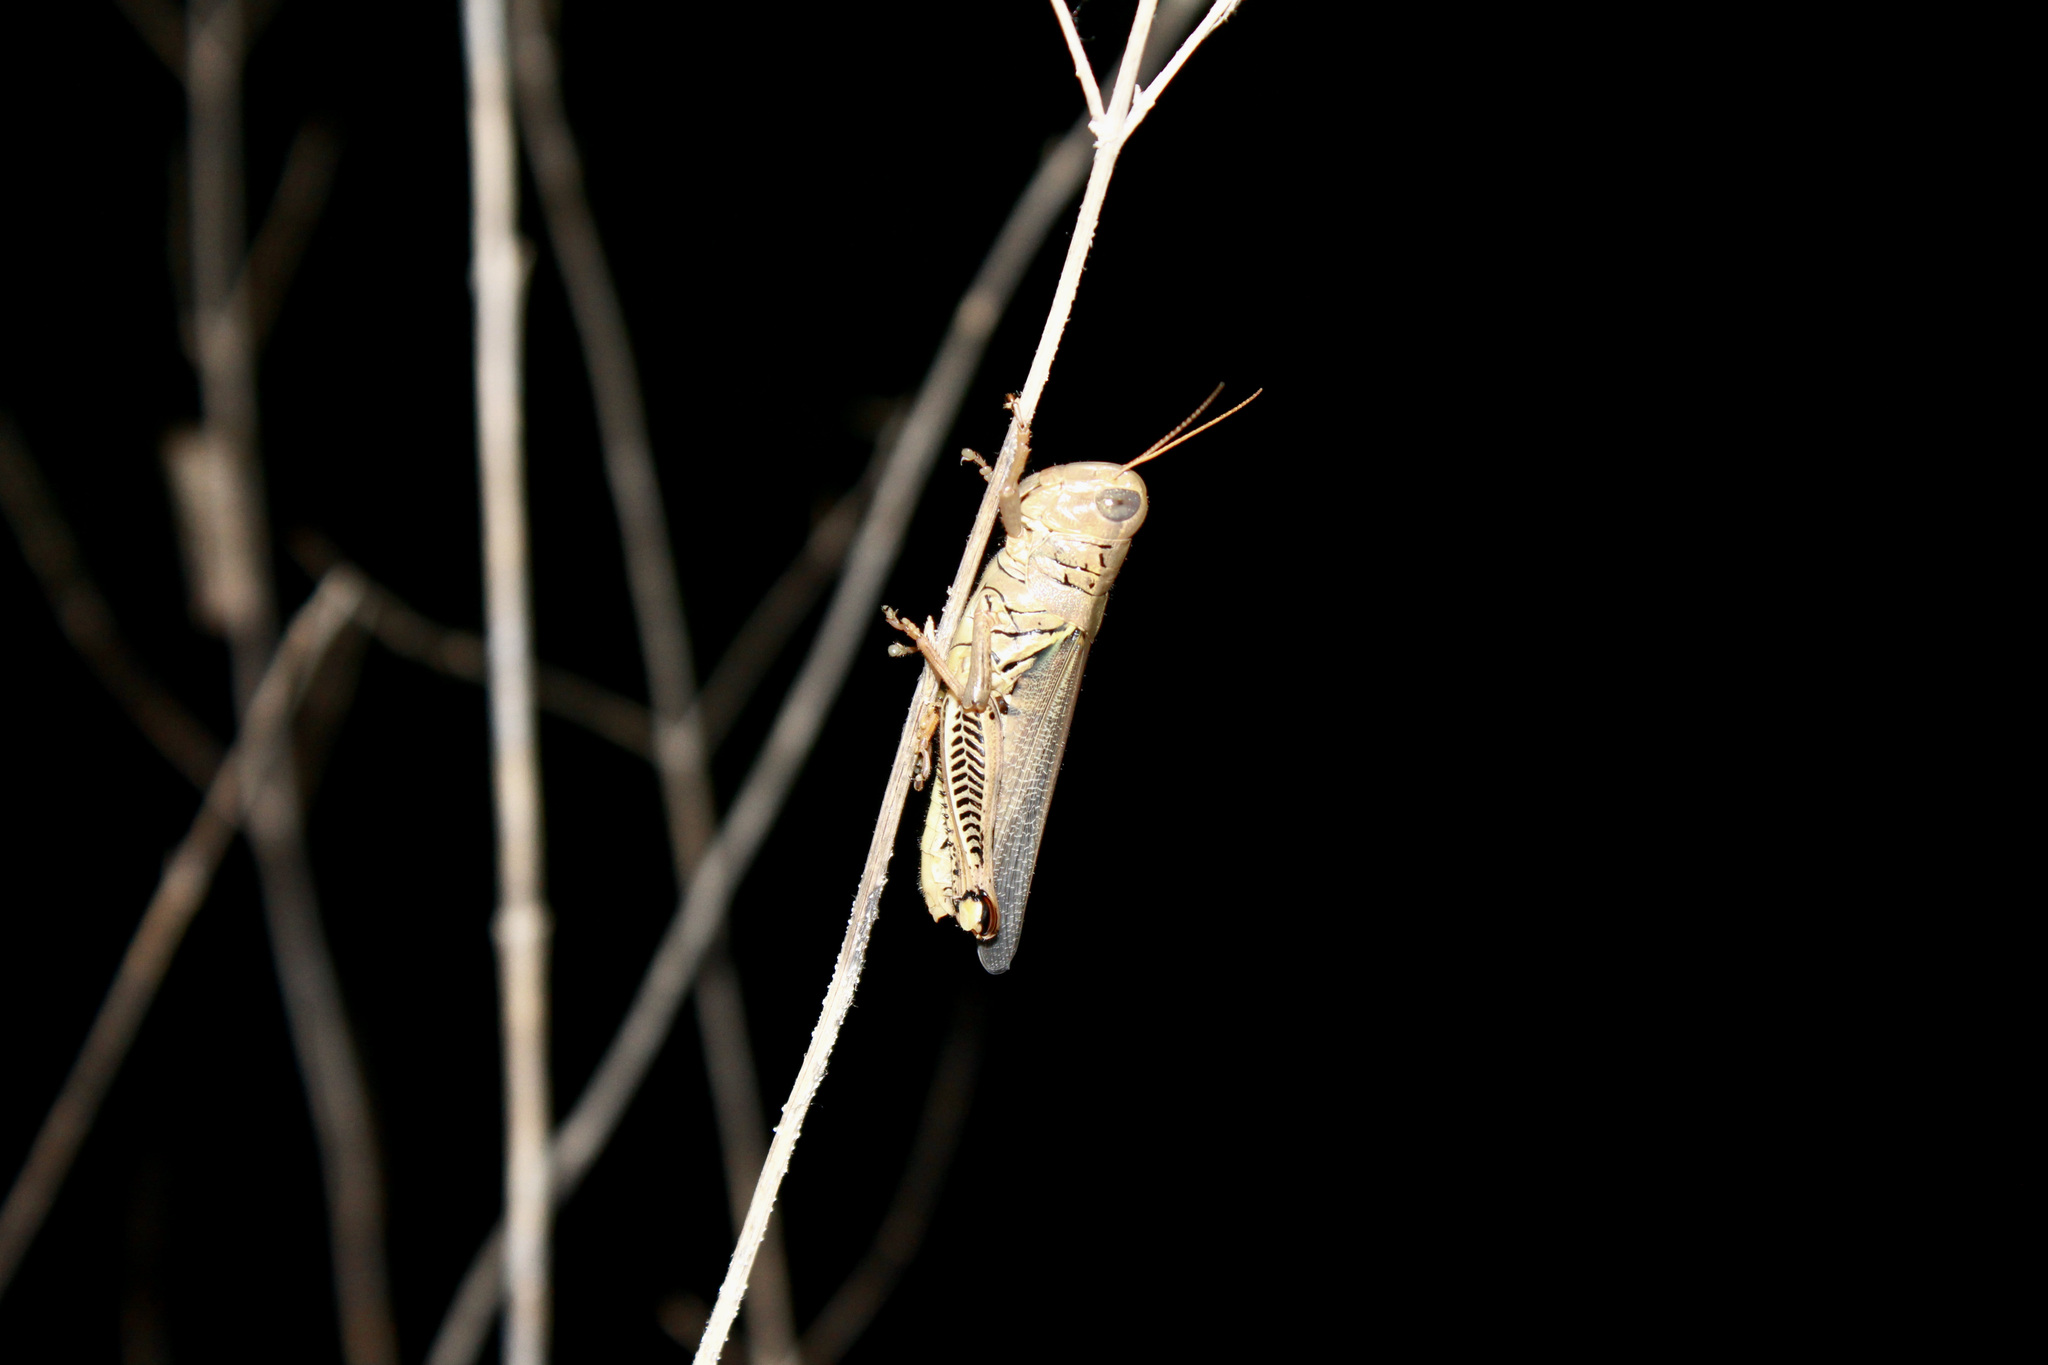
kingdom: Animalia
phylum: Arthropoda
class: Insecta
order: Orthoptera
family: Acrididae
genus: Melanoplus
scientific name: Melanoplus differentialis
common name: Differential grasshopper
